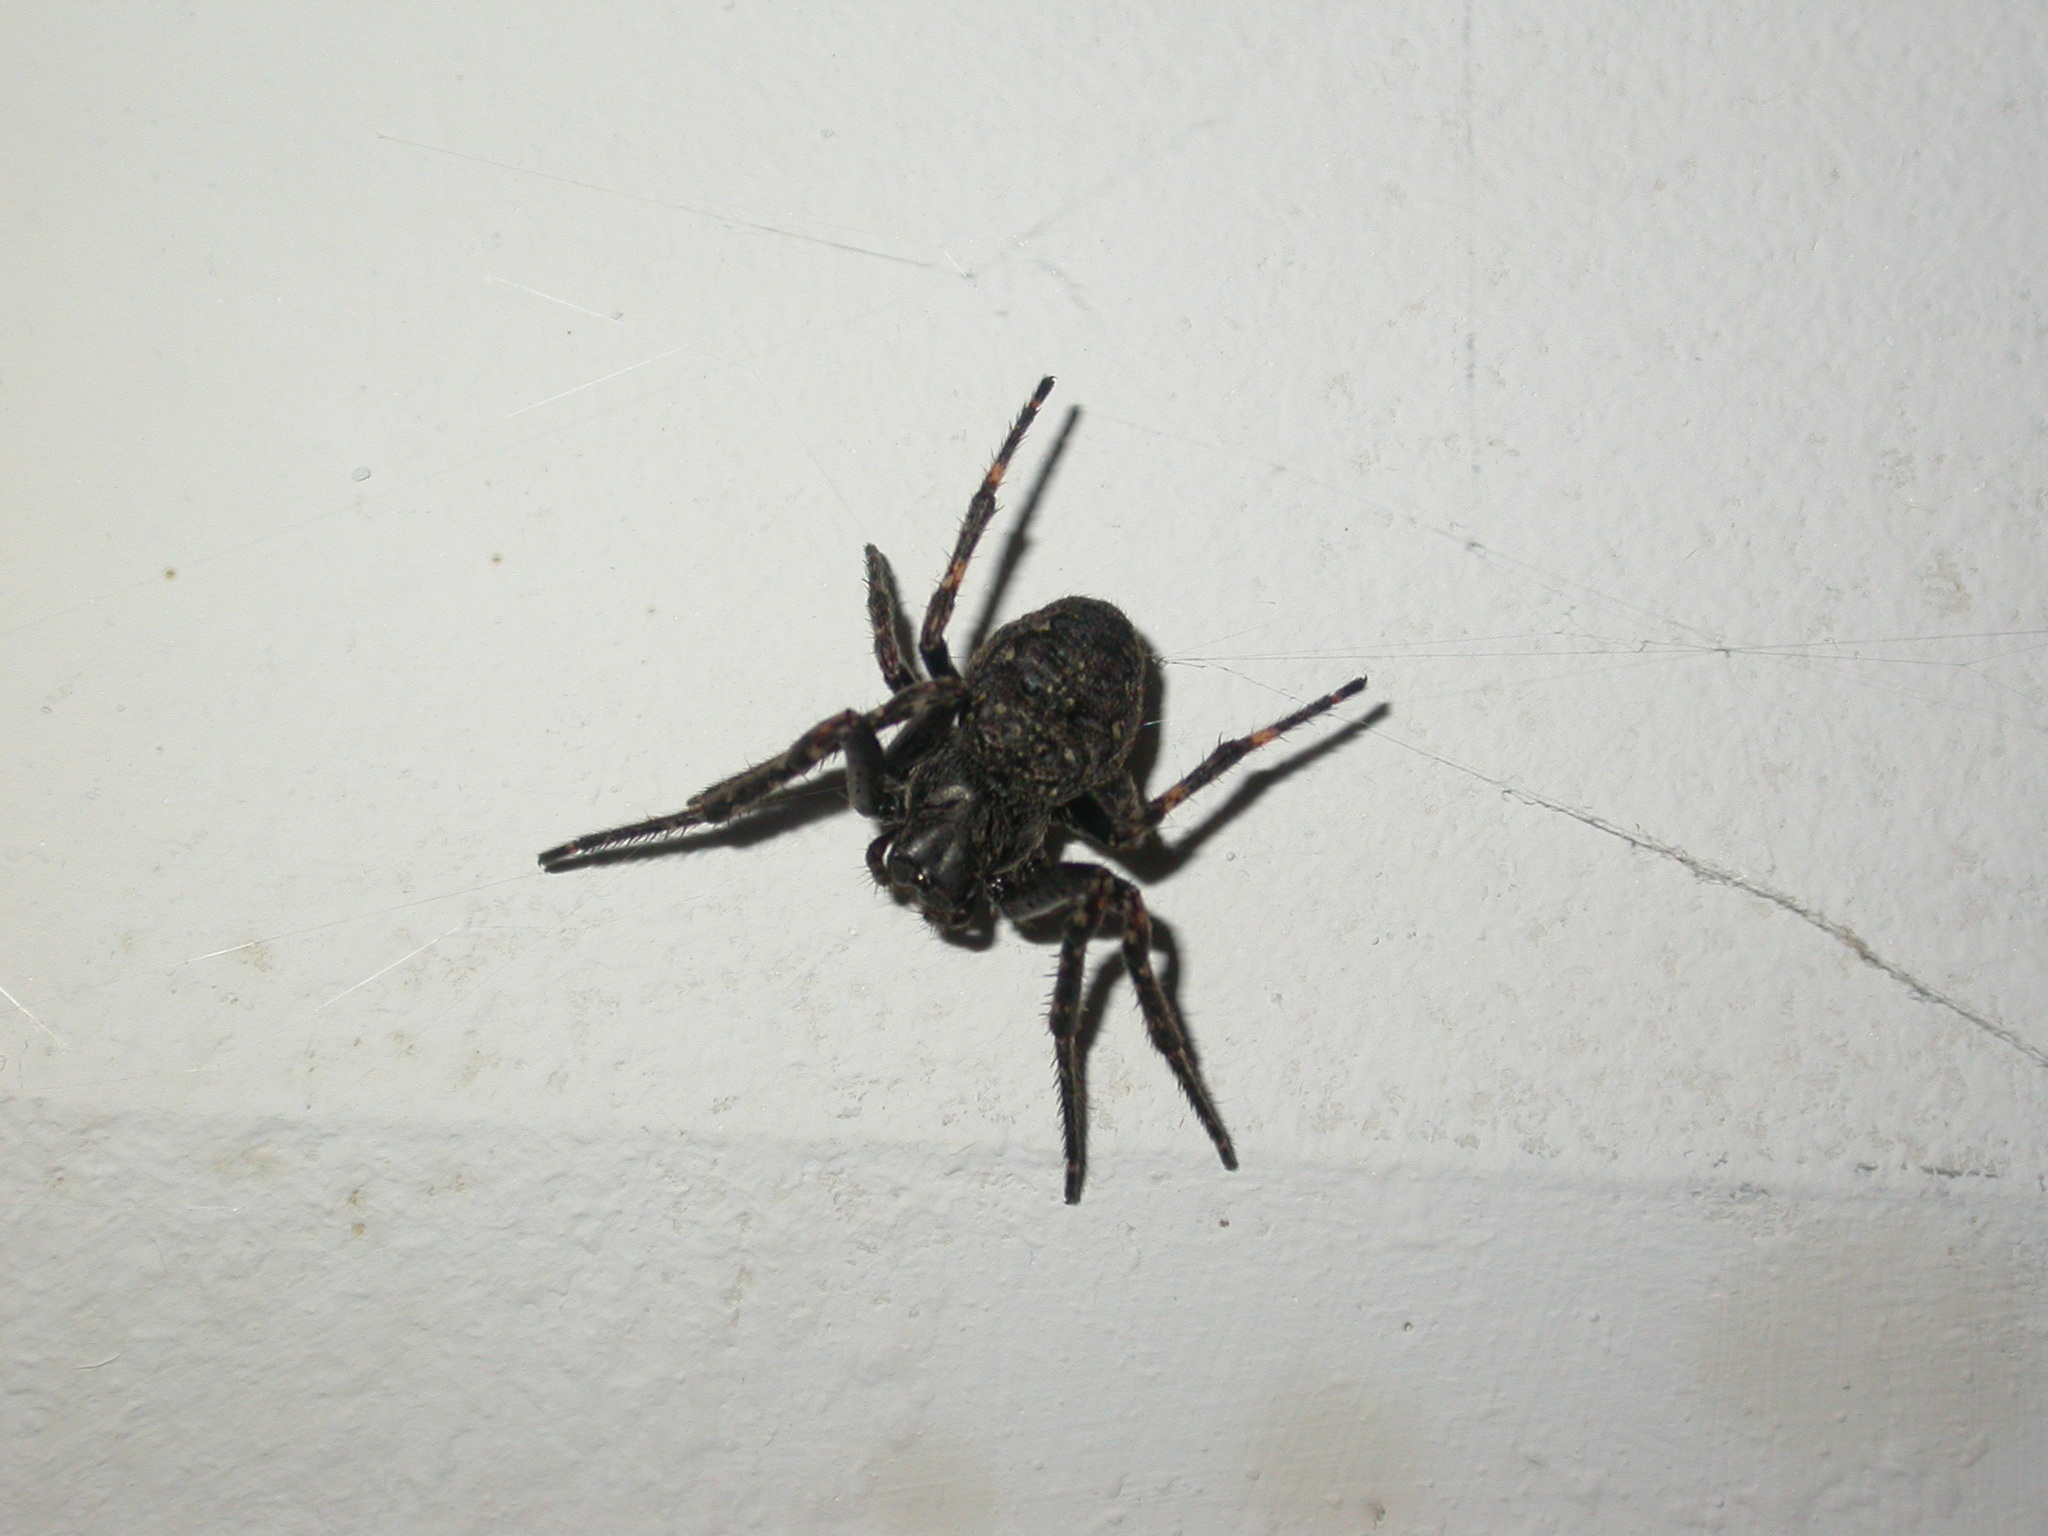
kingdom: Animalia
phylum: Arthropoda
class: Arachnida
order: Araneae
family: Araneidae
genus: Nuctenea
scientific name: Nuctenea umbratica
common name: Toad spider
